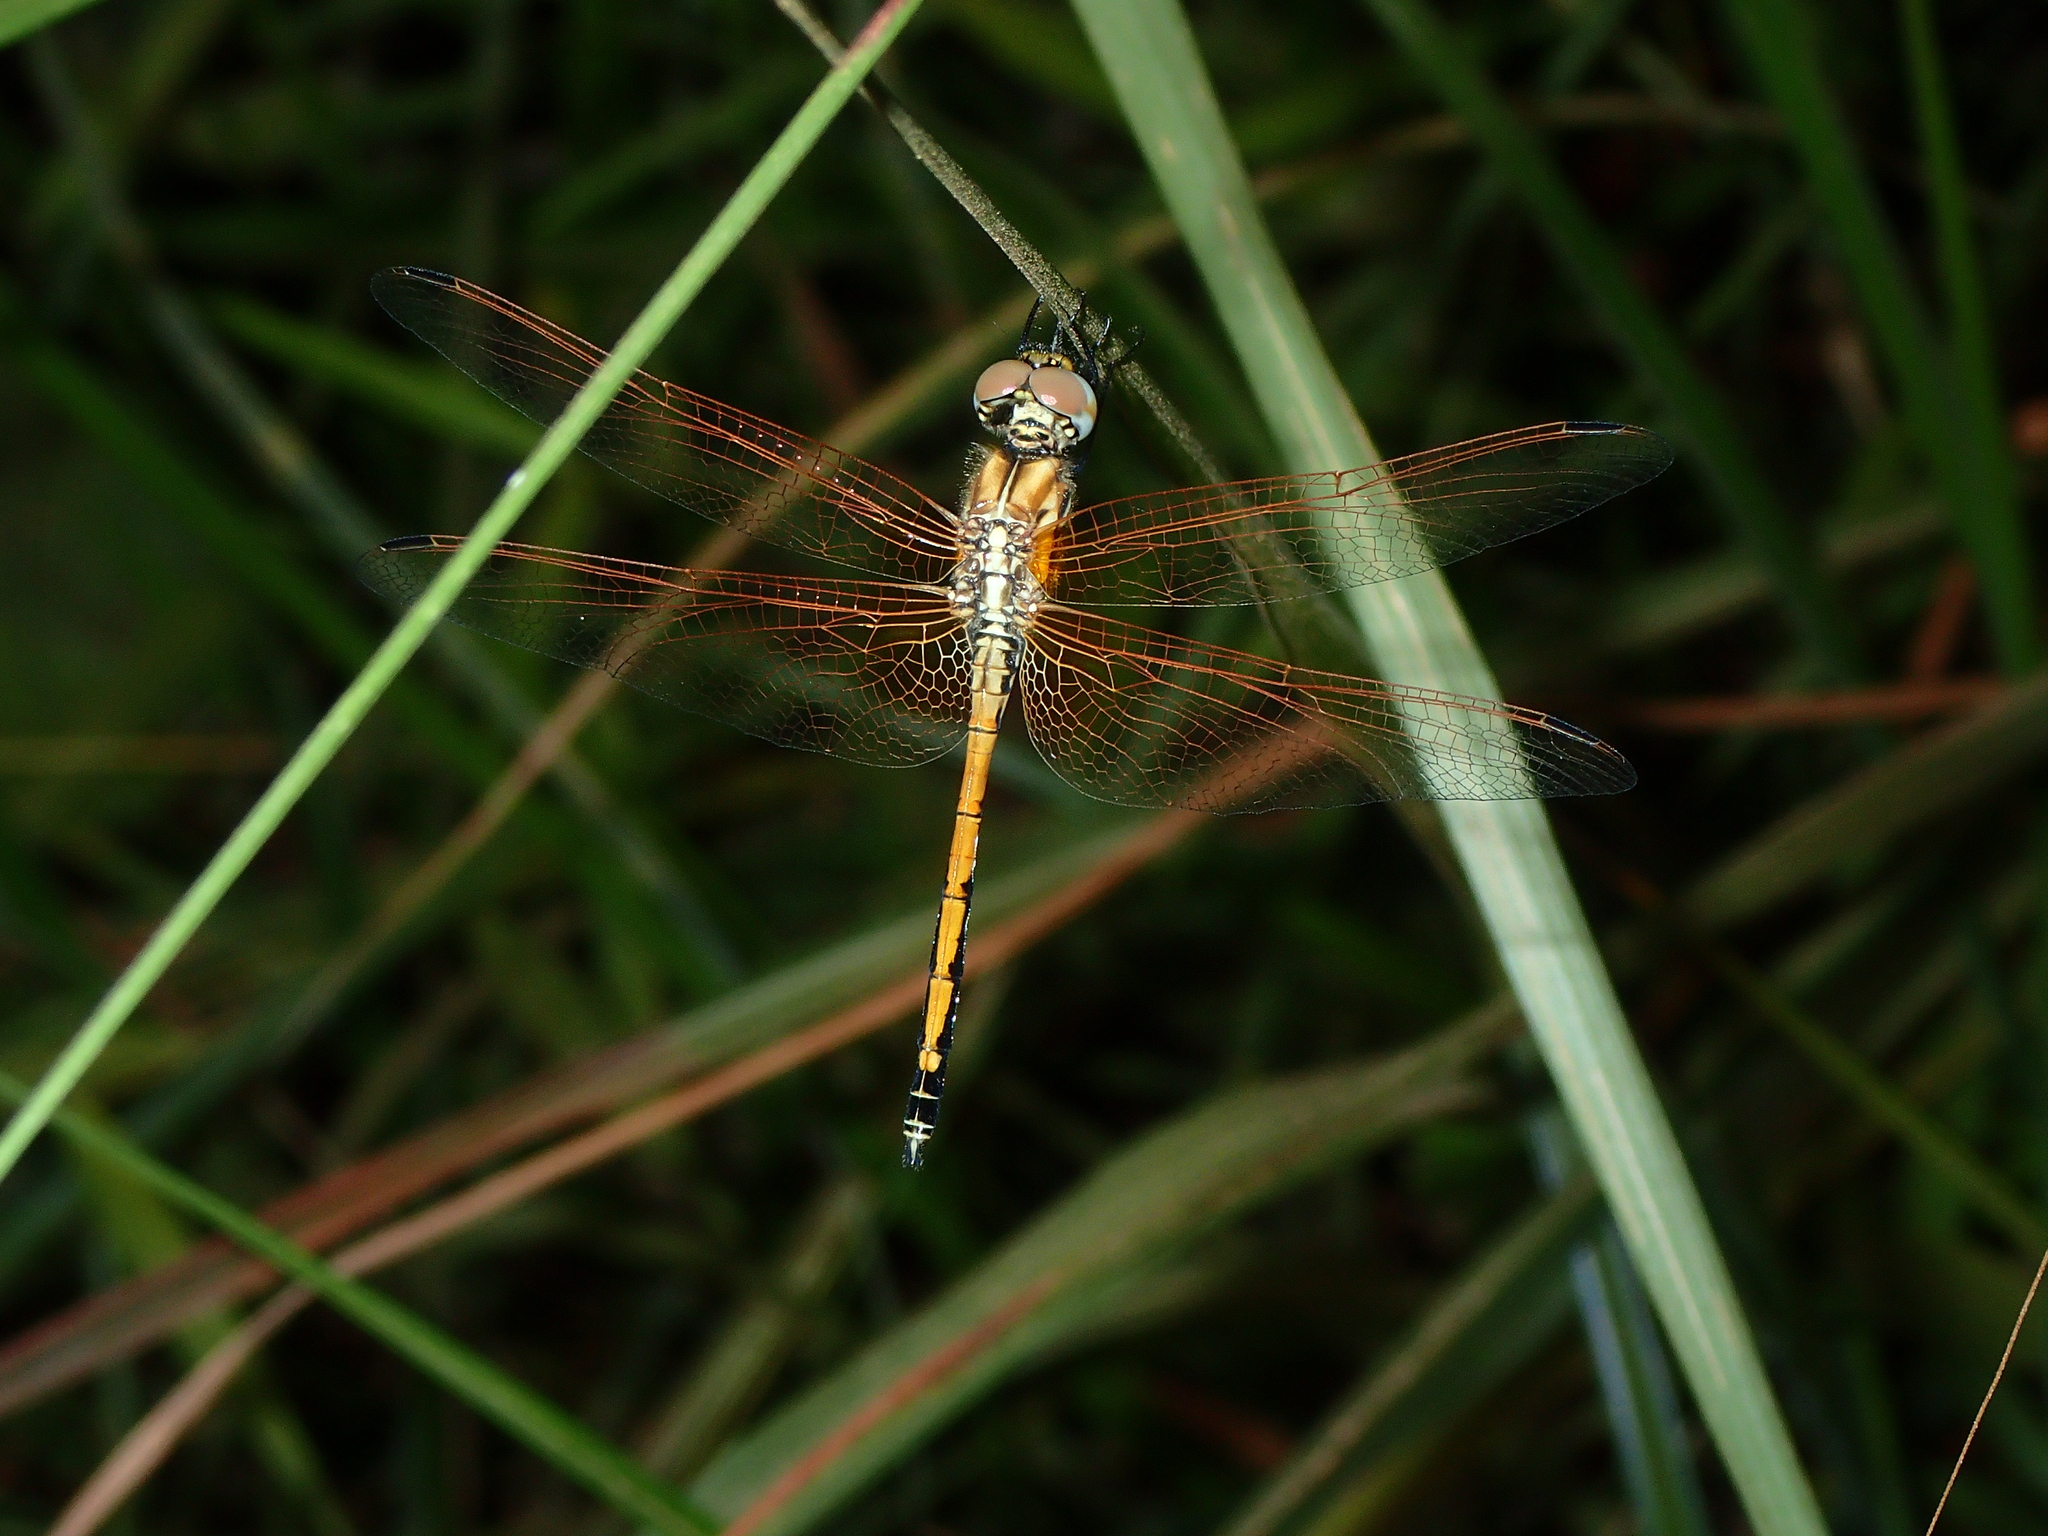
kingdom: Animalia
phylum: Arthropoda
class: Insecta
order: Odonata
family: Libellulidae
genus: Trithemis
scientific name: Trithemis arteriosa
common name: Red-veined dropwing
